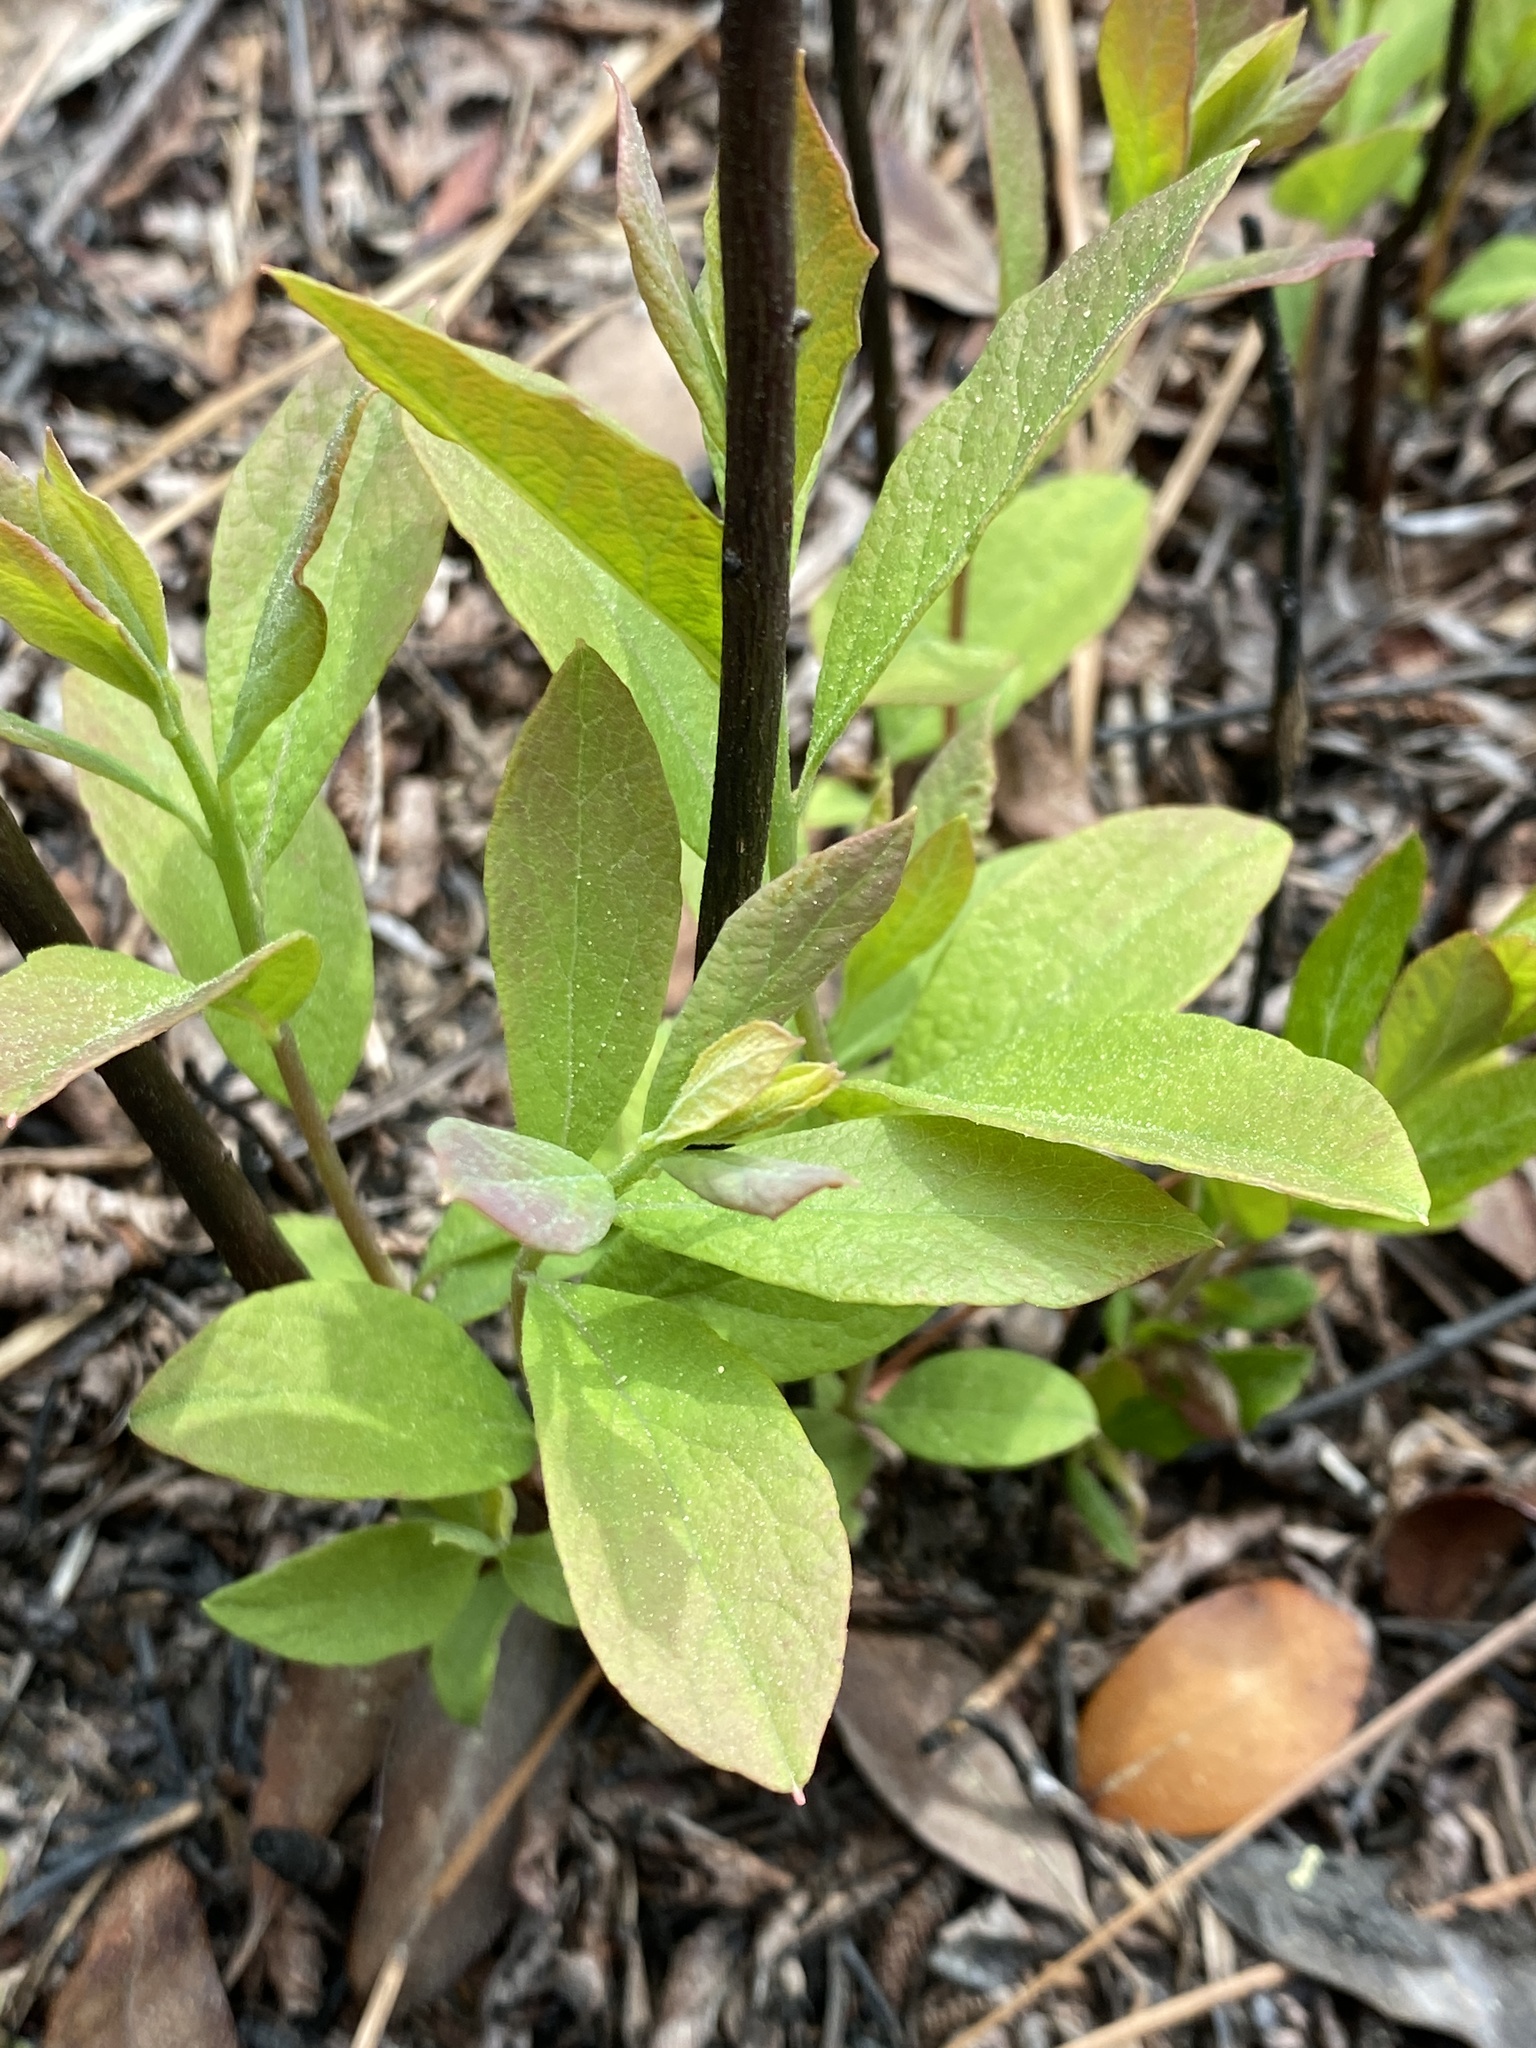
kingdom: Plantae
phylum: Tracheophyta
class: Magnoliopsida
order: Ericales
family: Ericaceae
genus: Gaylussacia
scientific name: Gaylussacia frondosa
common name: Dangleberry
